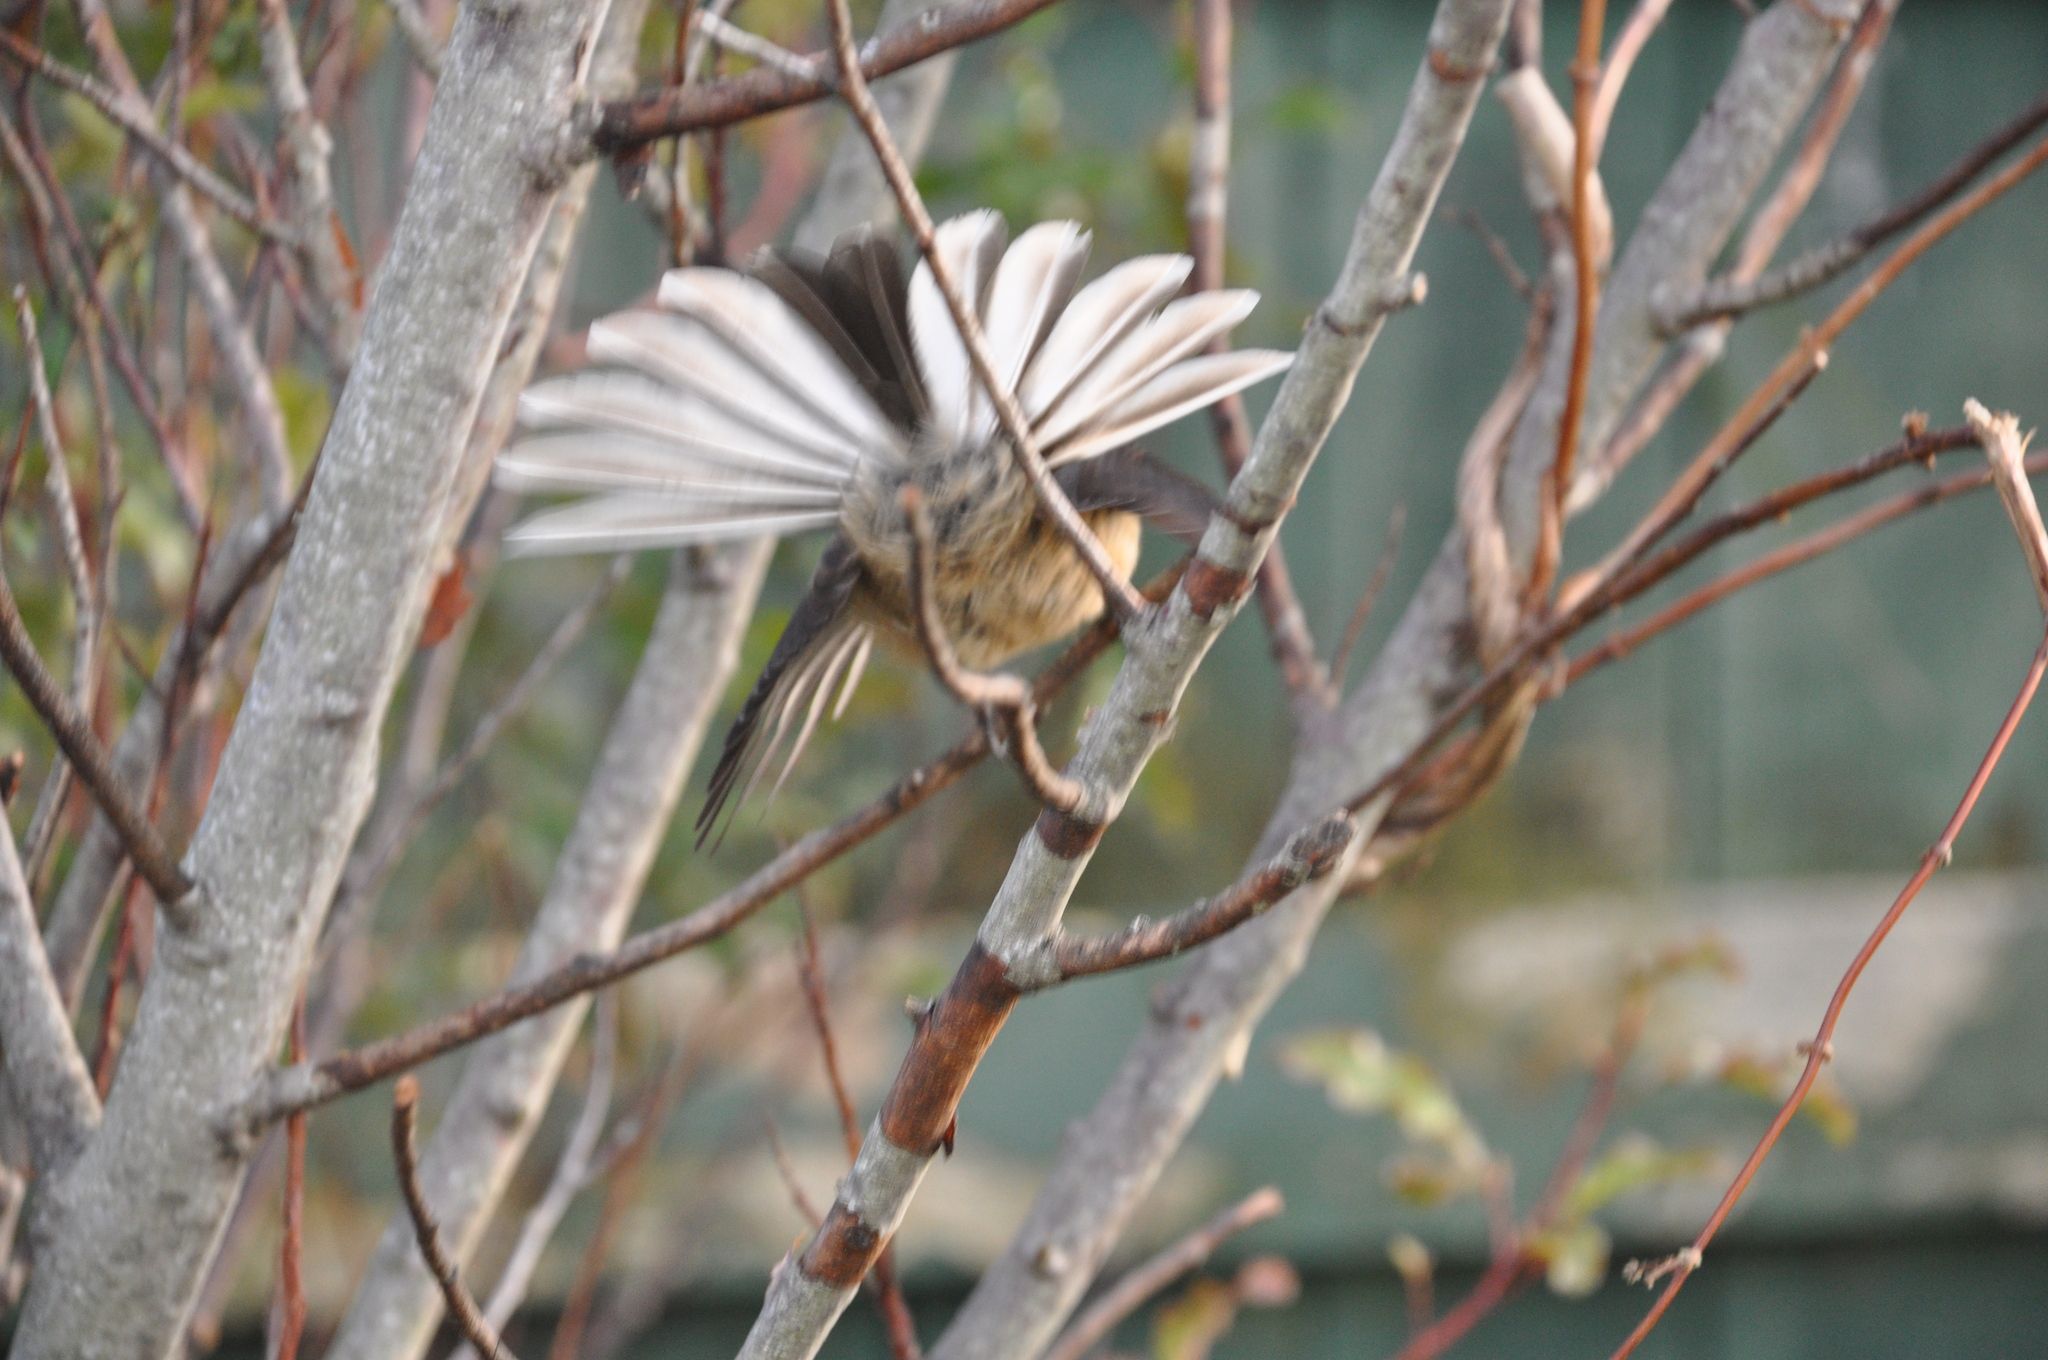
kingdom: Animalia
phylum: Chordata
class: Aves
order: Passeriformes
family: Rhipiduridae
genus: Rhipidura
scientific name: Rhipidura fuliginosa
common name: New zealand fantail
